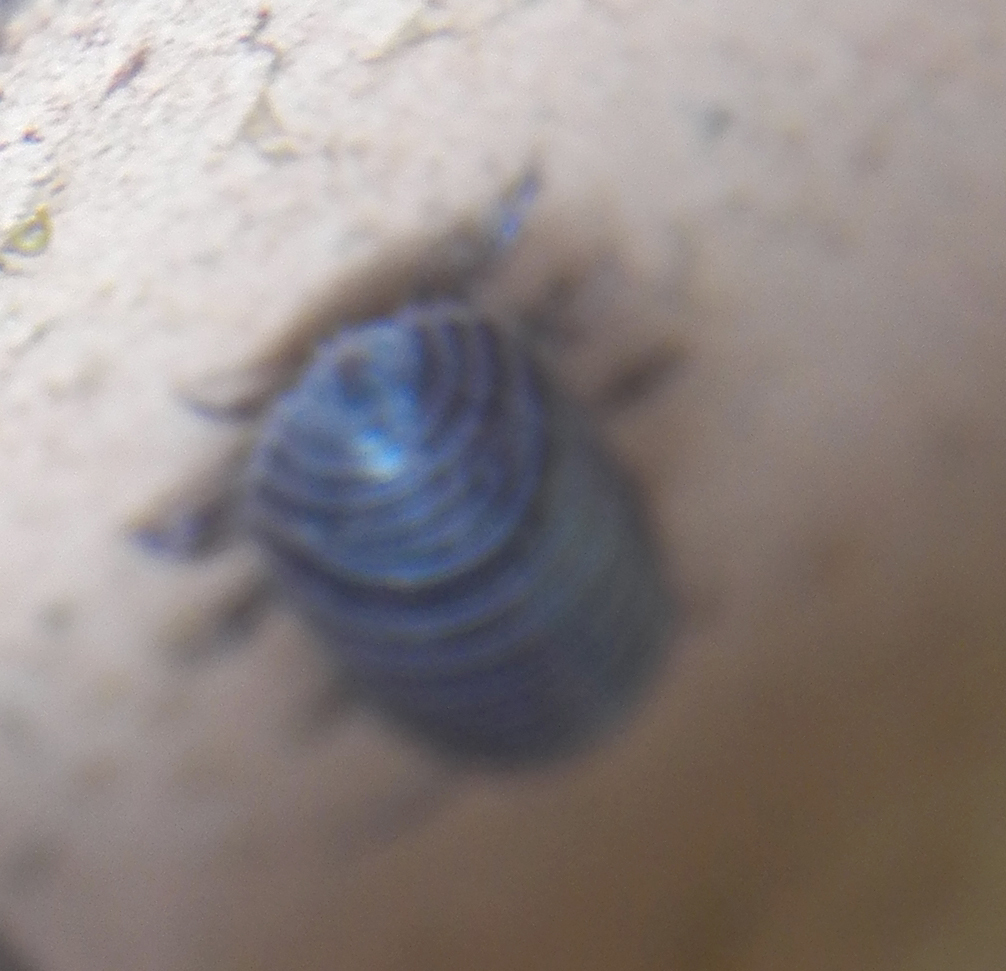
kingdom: Animalia
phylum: Arthropoda
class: Malacostraca
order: Isopoda
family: Armadillidiidae
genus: Armadillidium
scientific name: Armadillidium vulgare
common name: Common pill woodlouse
